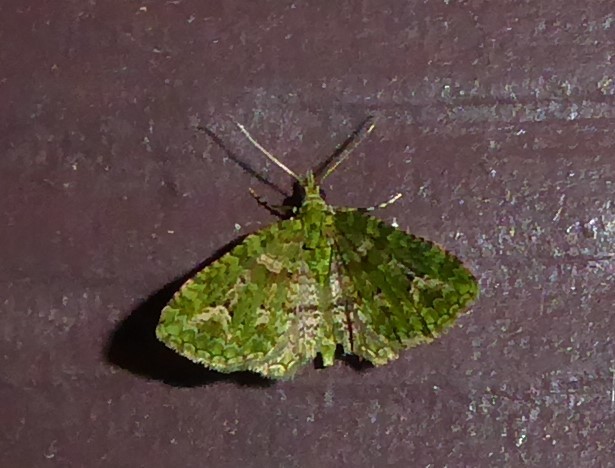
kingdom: Animalia
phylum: Arthropoda
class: Insecta
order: Lepidoptera
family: Geometridae
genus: Pasiphila
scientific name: Pasiphila muscosata
